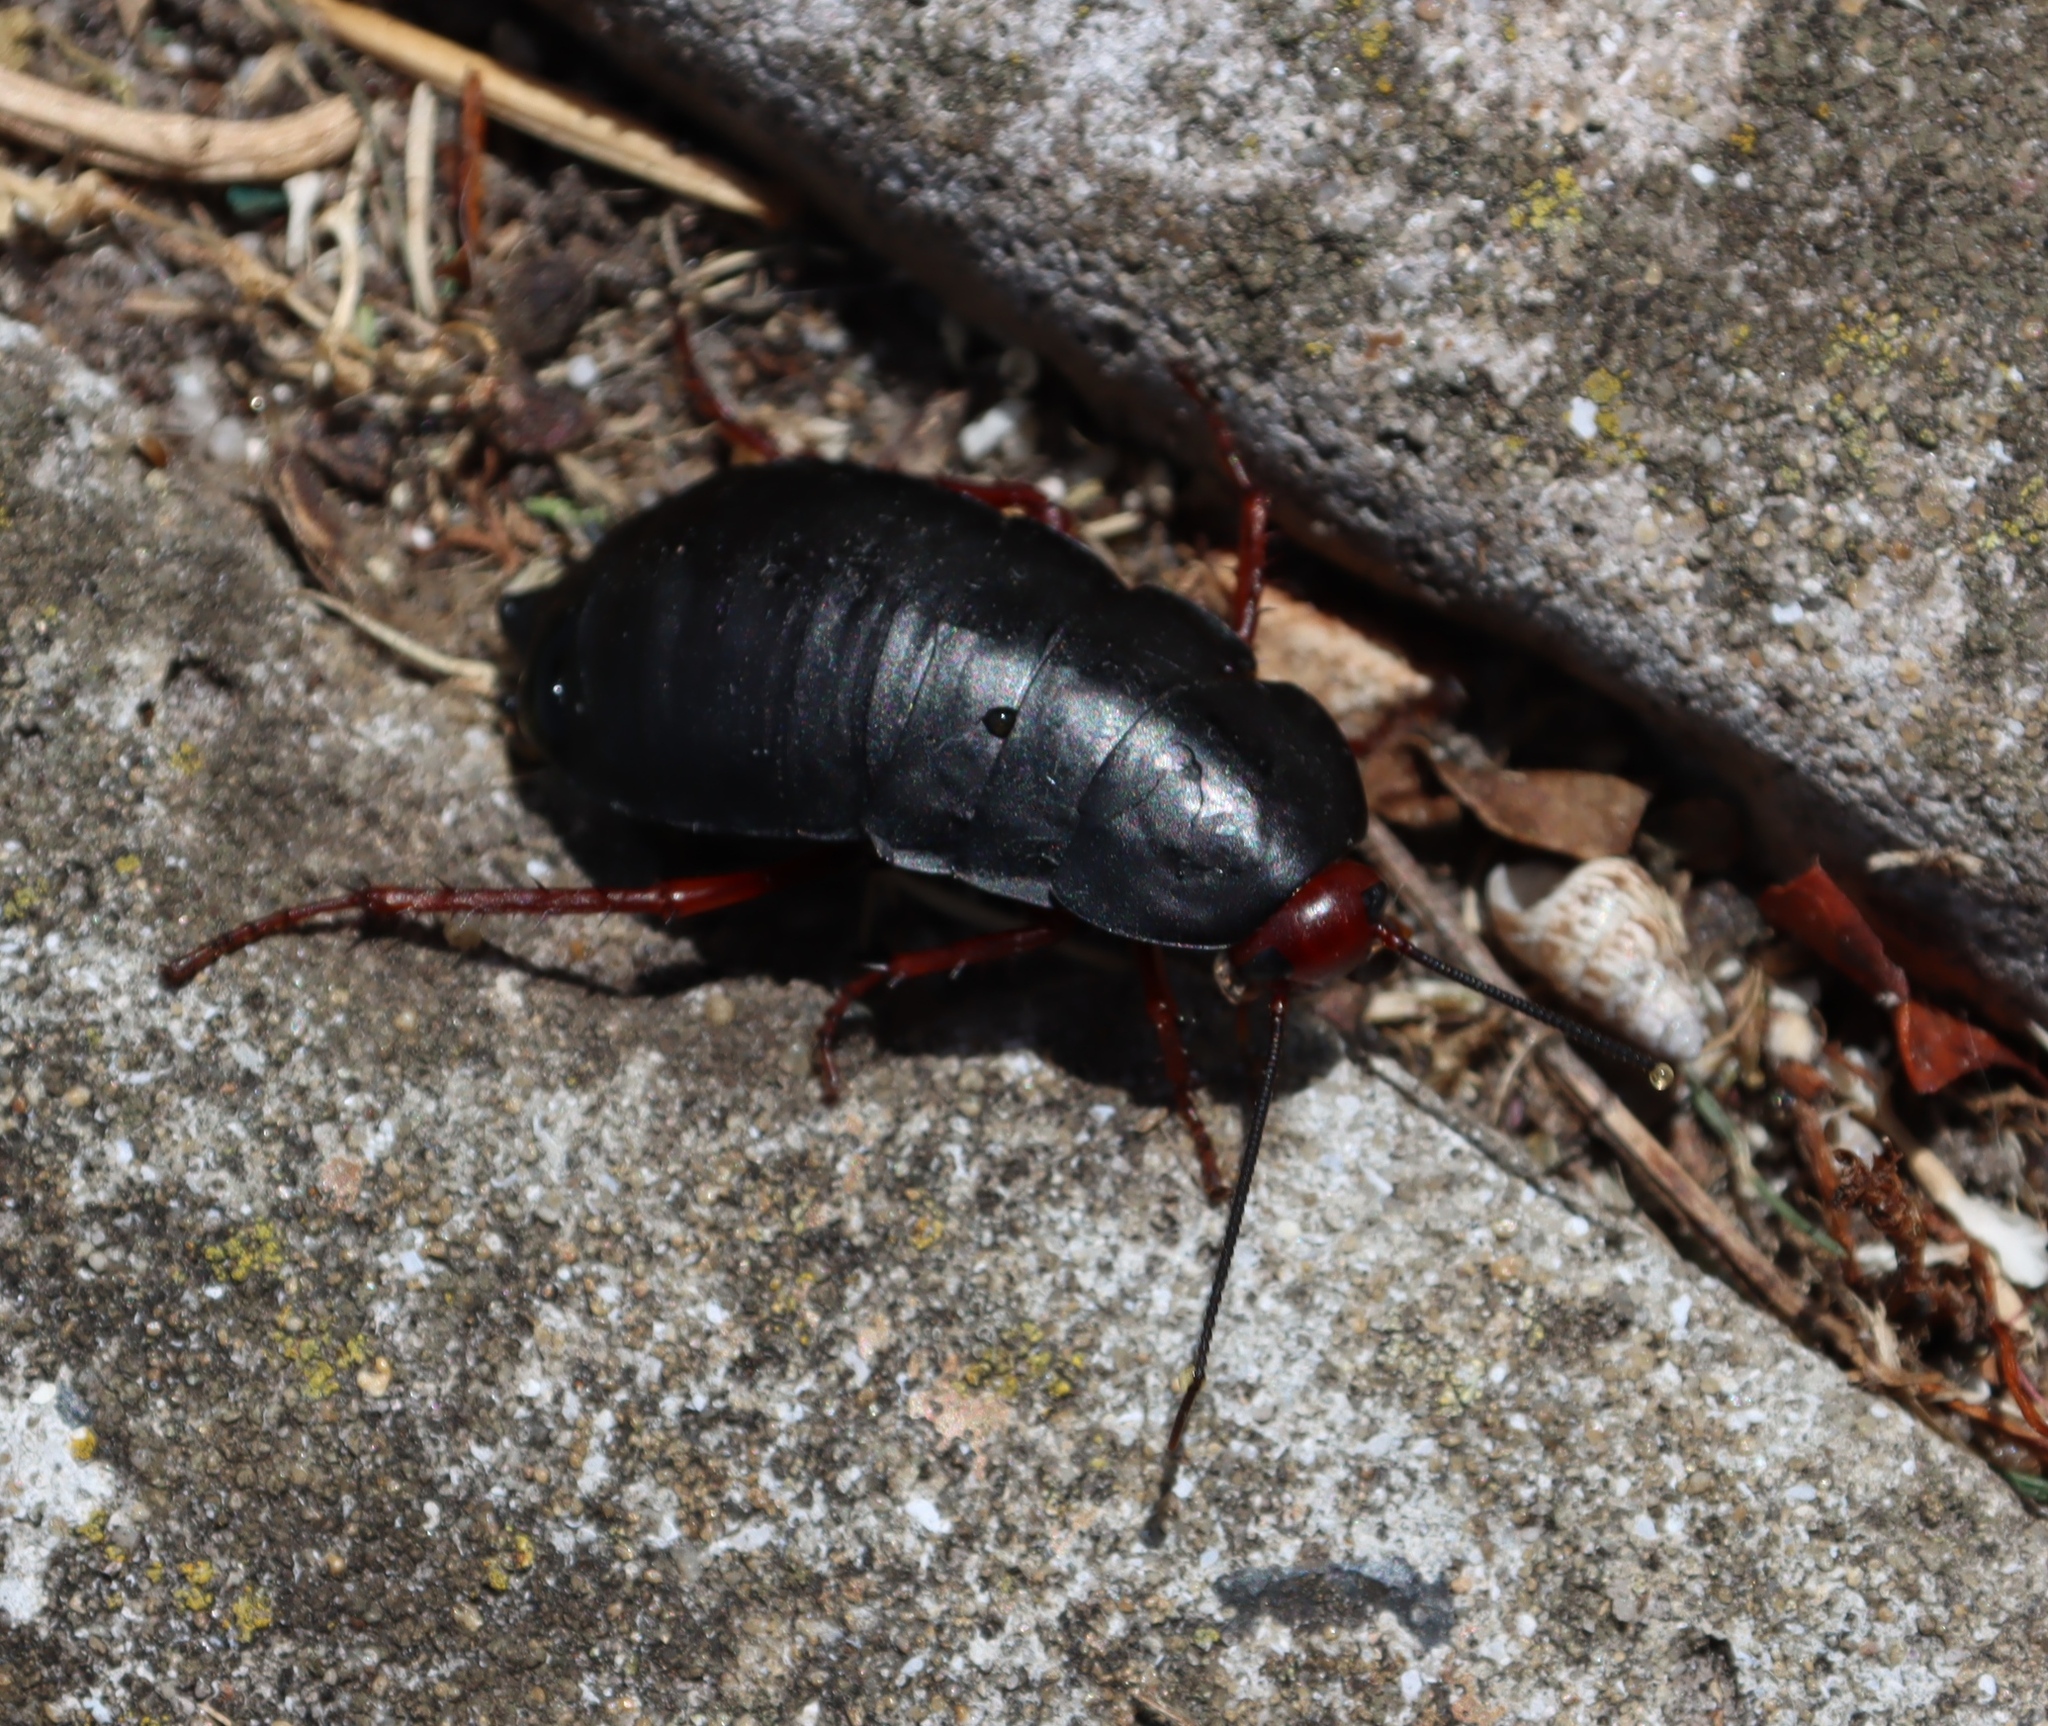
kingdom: Animalia
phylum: Arthropoda
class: Insecta
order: Blattodea
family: Blattidae
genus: Deropeltis
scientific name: Deropeltis erythrocephala
